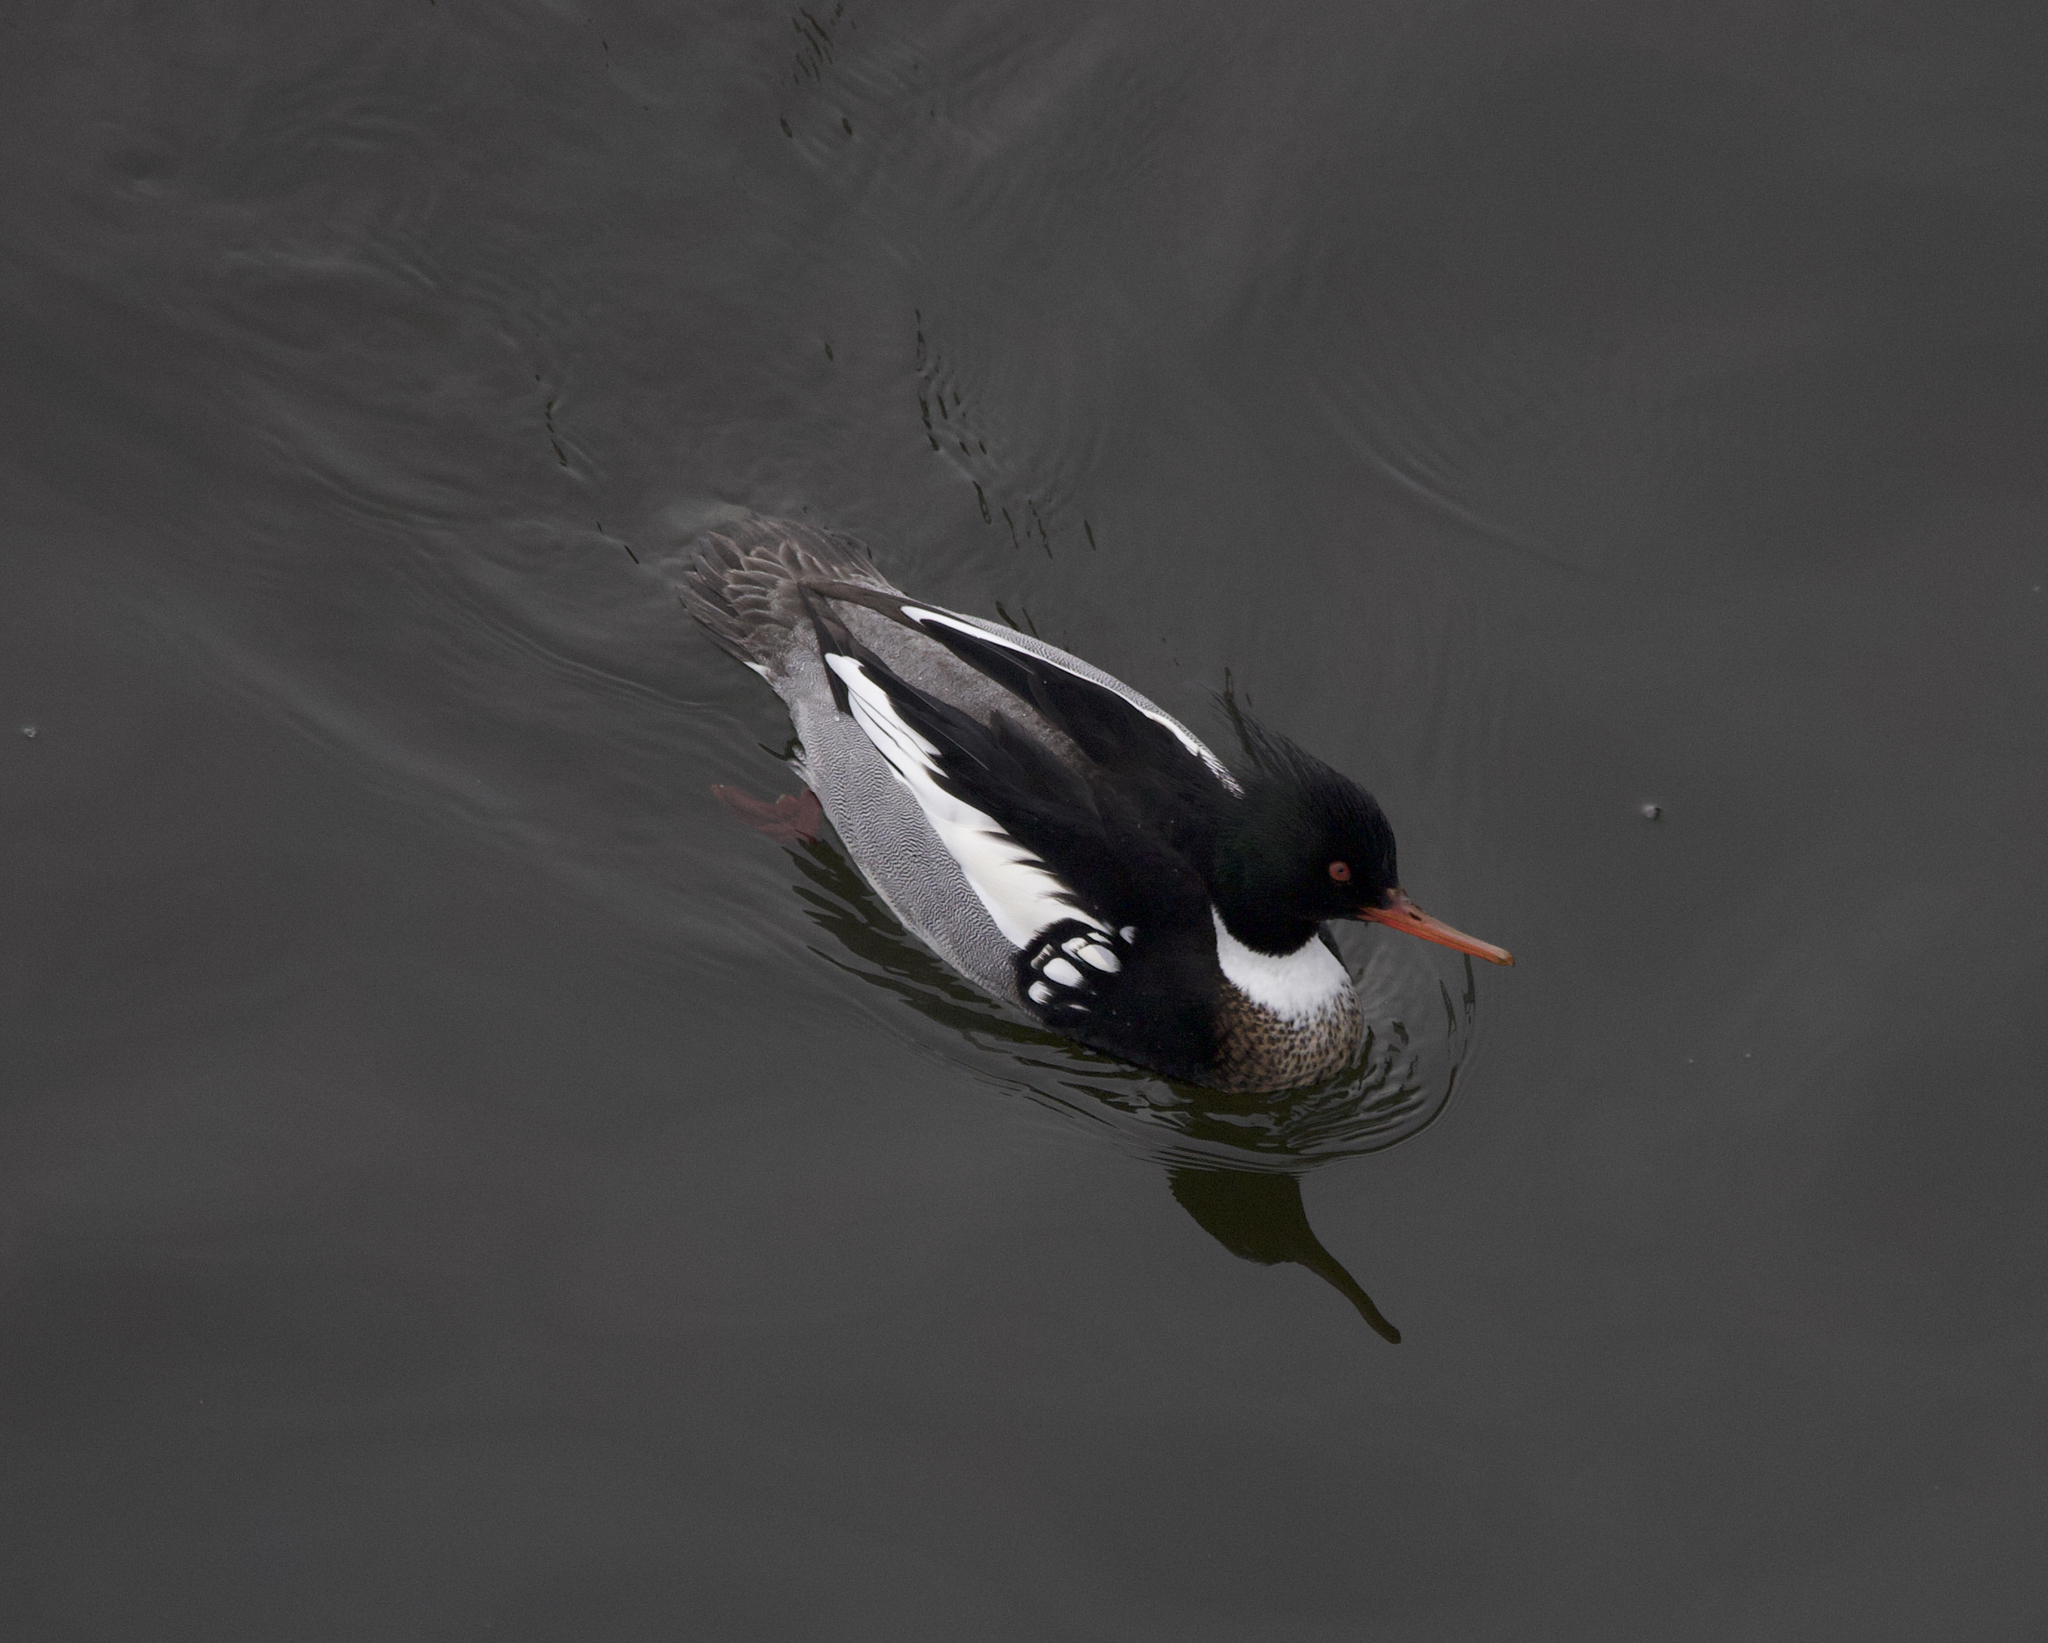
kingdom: Animalia
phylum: Chordata
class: Aves
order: Anseriformes
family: Anatidae
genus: Mergus
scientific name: Mergus serrator
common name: Red-breasted merganser
